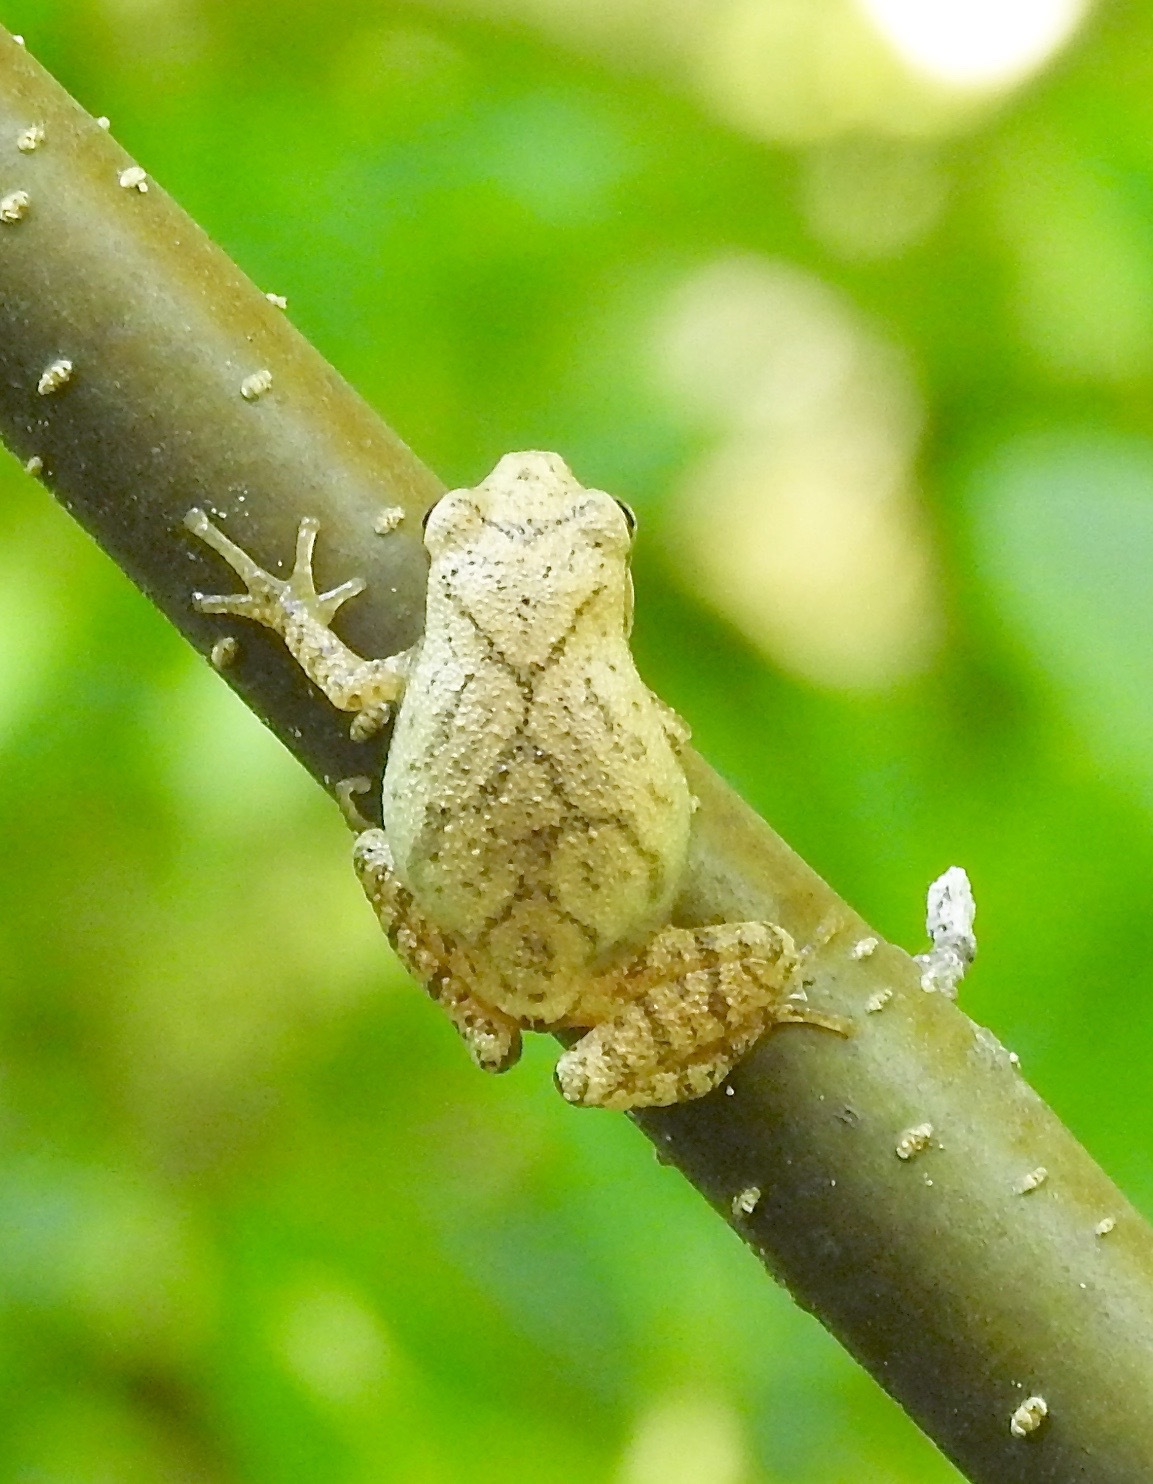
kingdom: Animalia
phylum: Chordata
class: Amphibia
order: Anura
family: Hylidae
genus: Pseudacris
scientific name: Pseudacris crucifer
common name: Spring peeper
